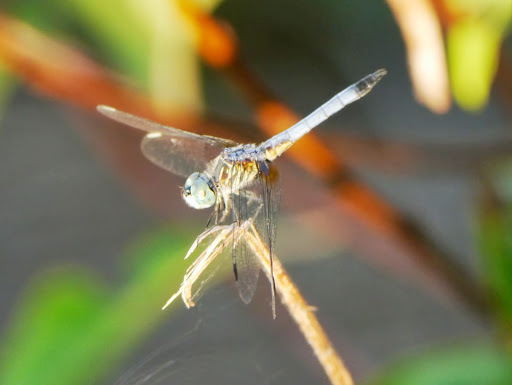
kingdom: Animalia
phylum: Arthropoda
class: Insecta
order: Odonata
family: Libellulidae
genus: Pachydiplax
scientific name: Pachydiplax longipennis
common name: Blue dasher
